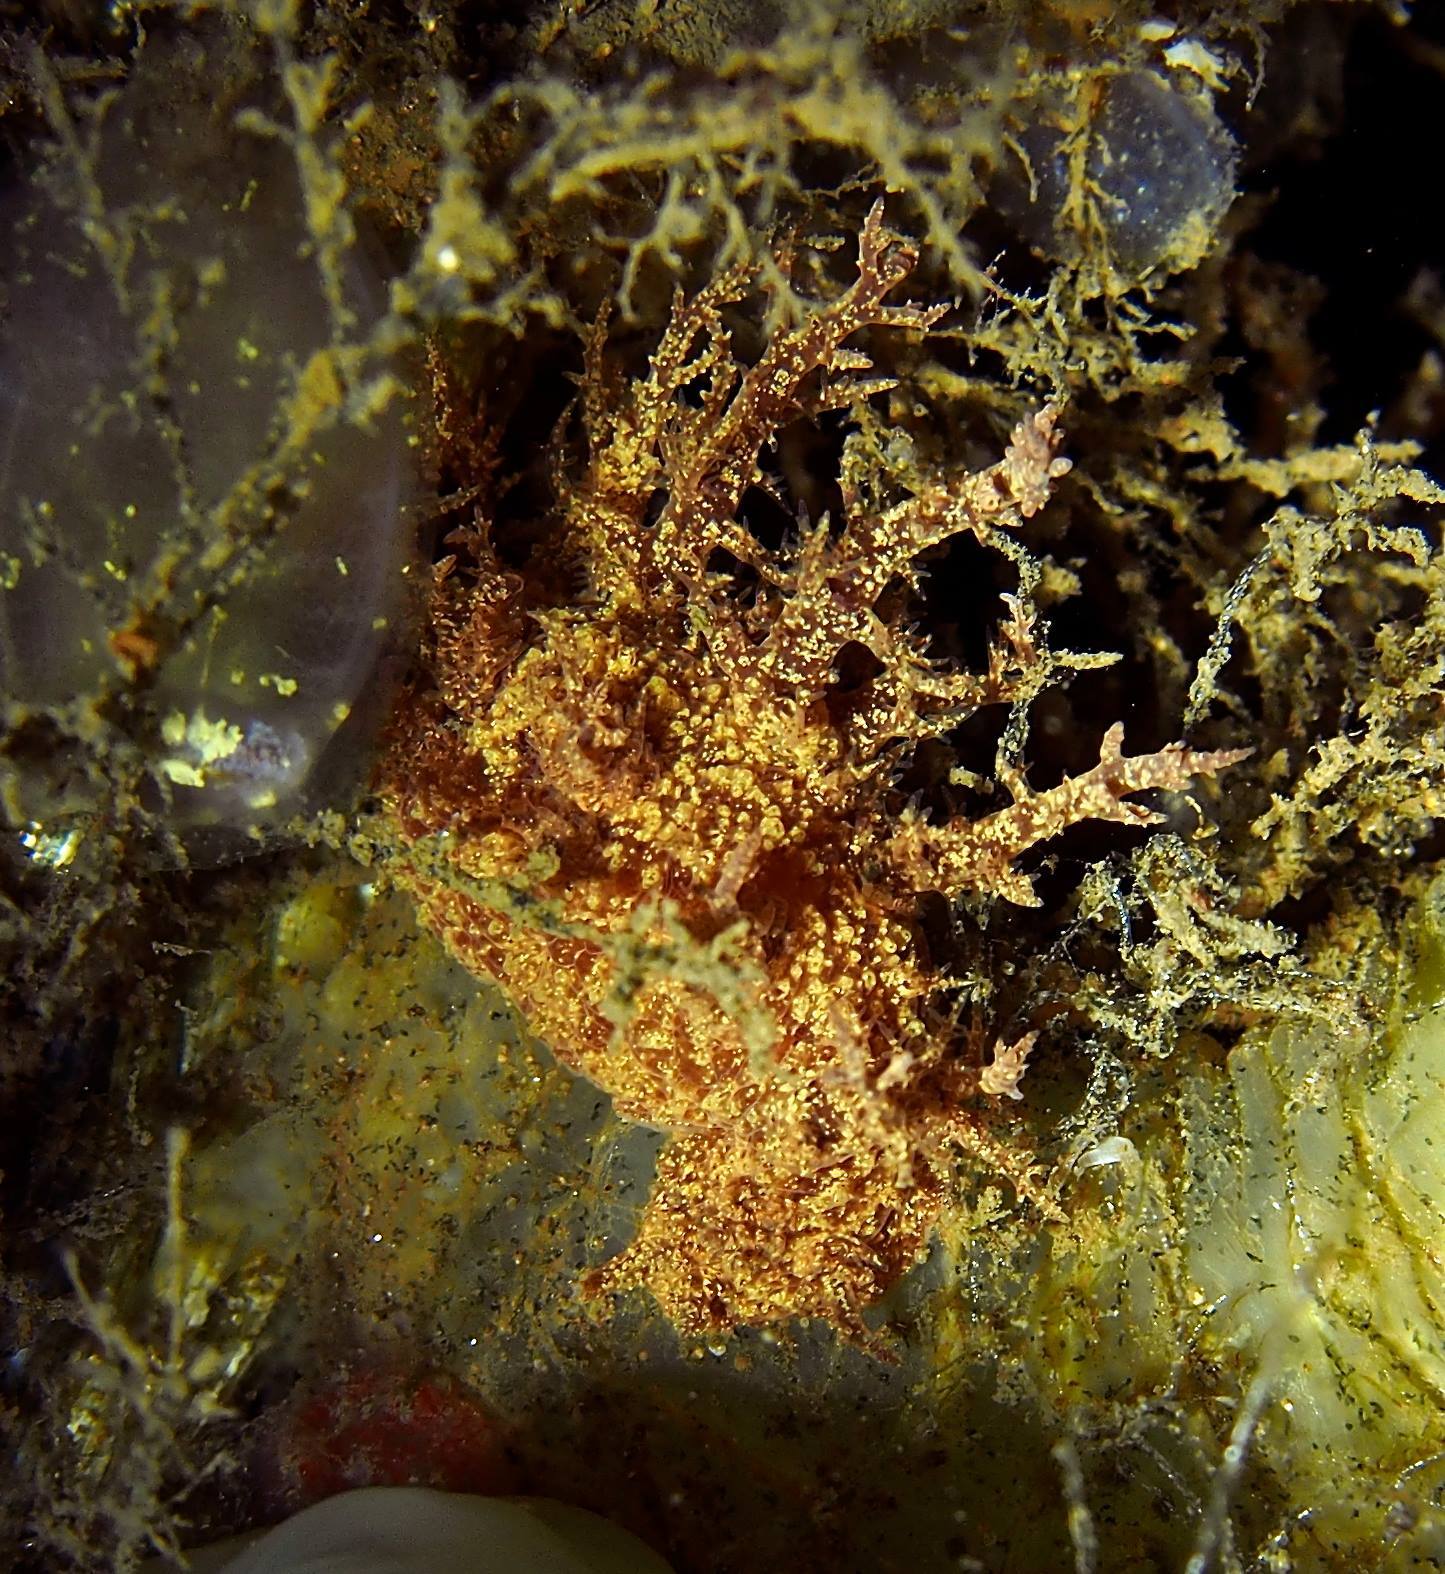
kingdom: Animalia
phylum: Mollusca
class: Gastropoda
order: Nudibranchia
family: Dendronotidae
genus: Dendronotus
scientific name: Dendronotus frondosus
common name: Bushy-backed nudibranch
